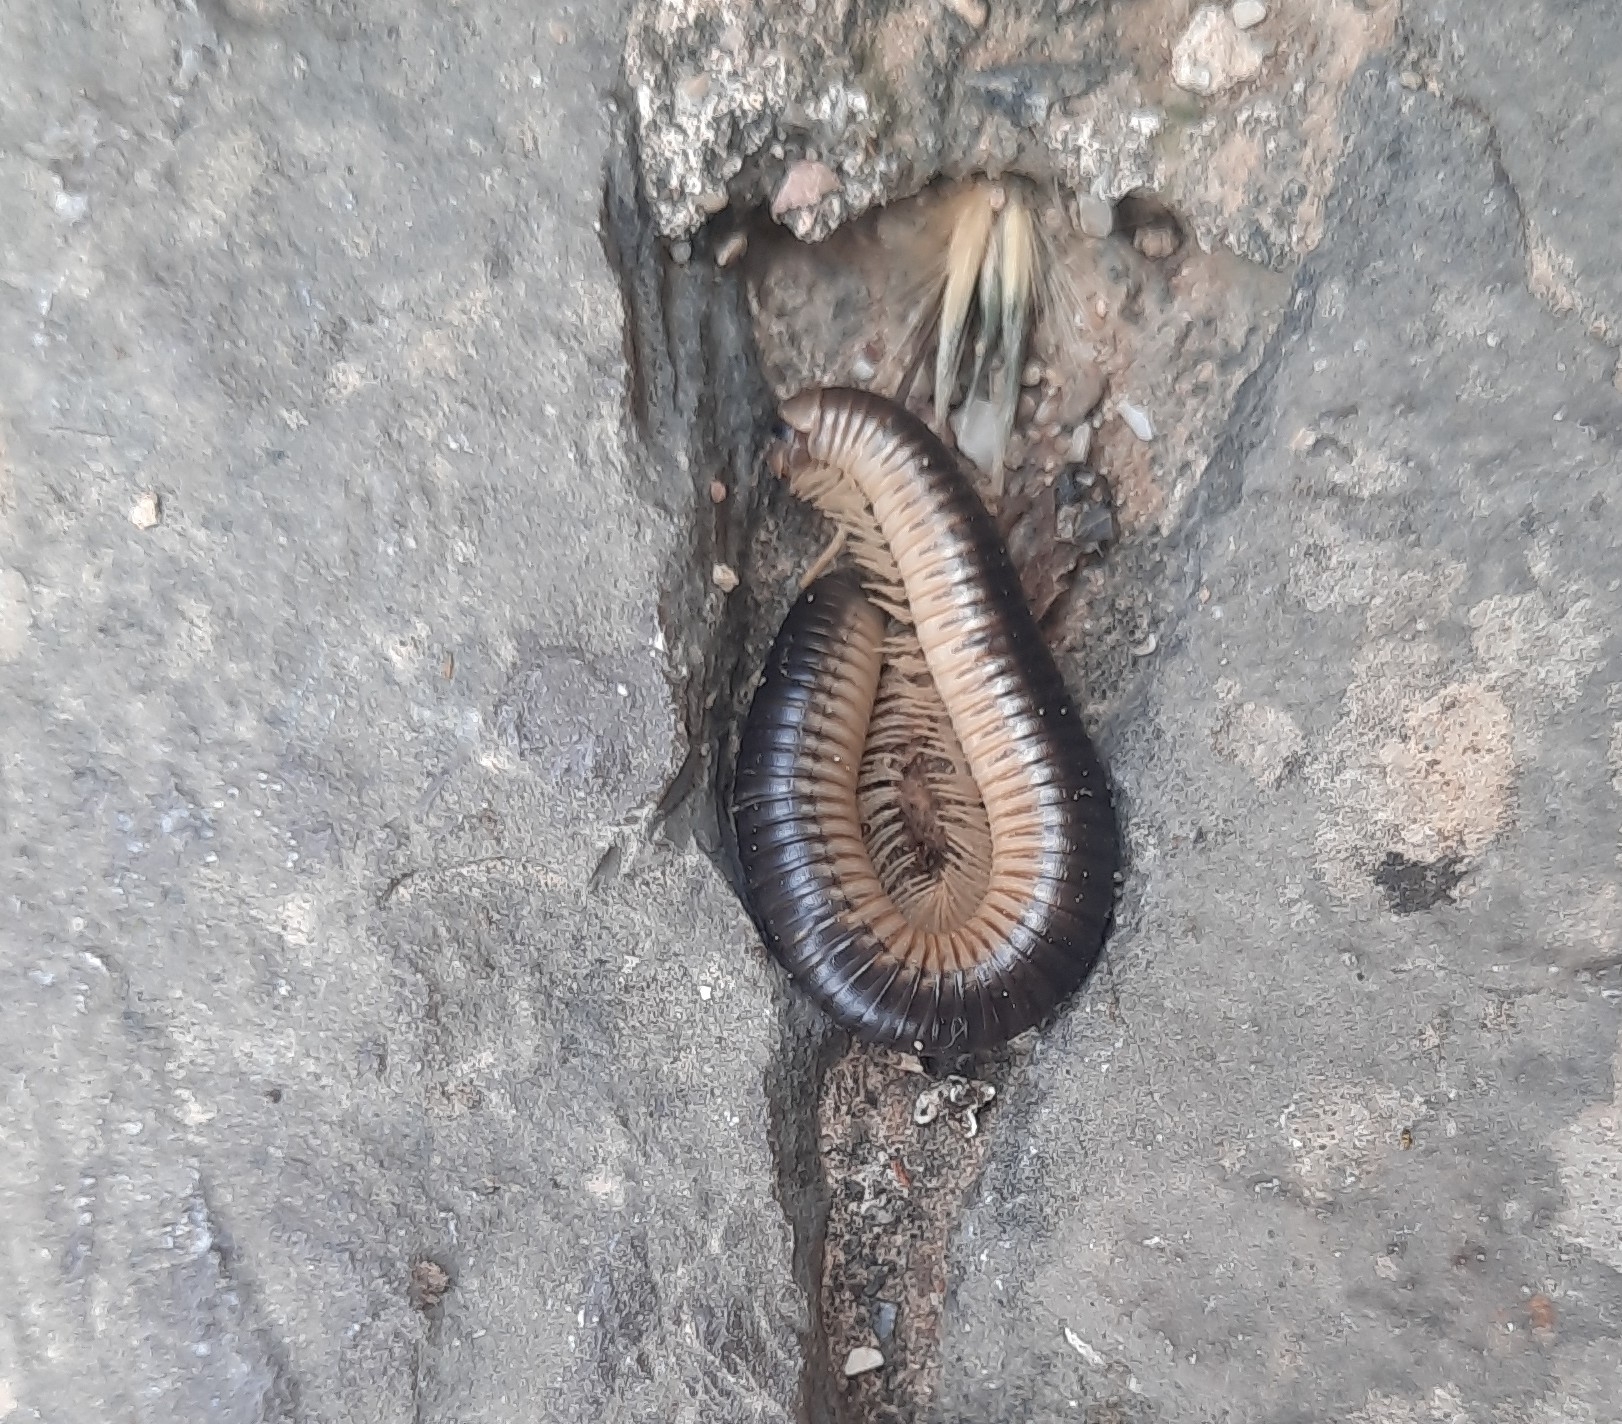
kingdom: Animalia
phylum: Arthropoda
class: Diplopoda
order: Julida
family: Julidae
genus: Pachyiulus
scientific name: Pachyiulus flavipes
